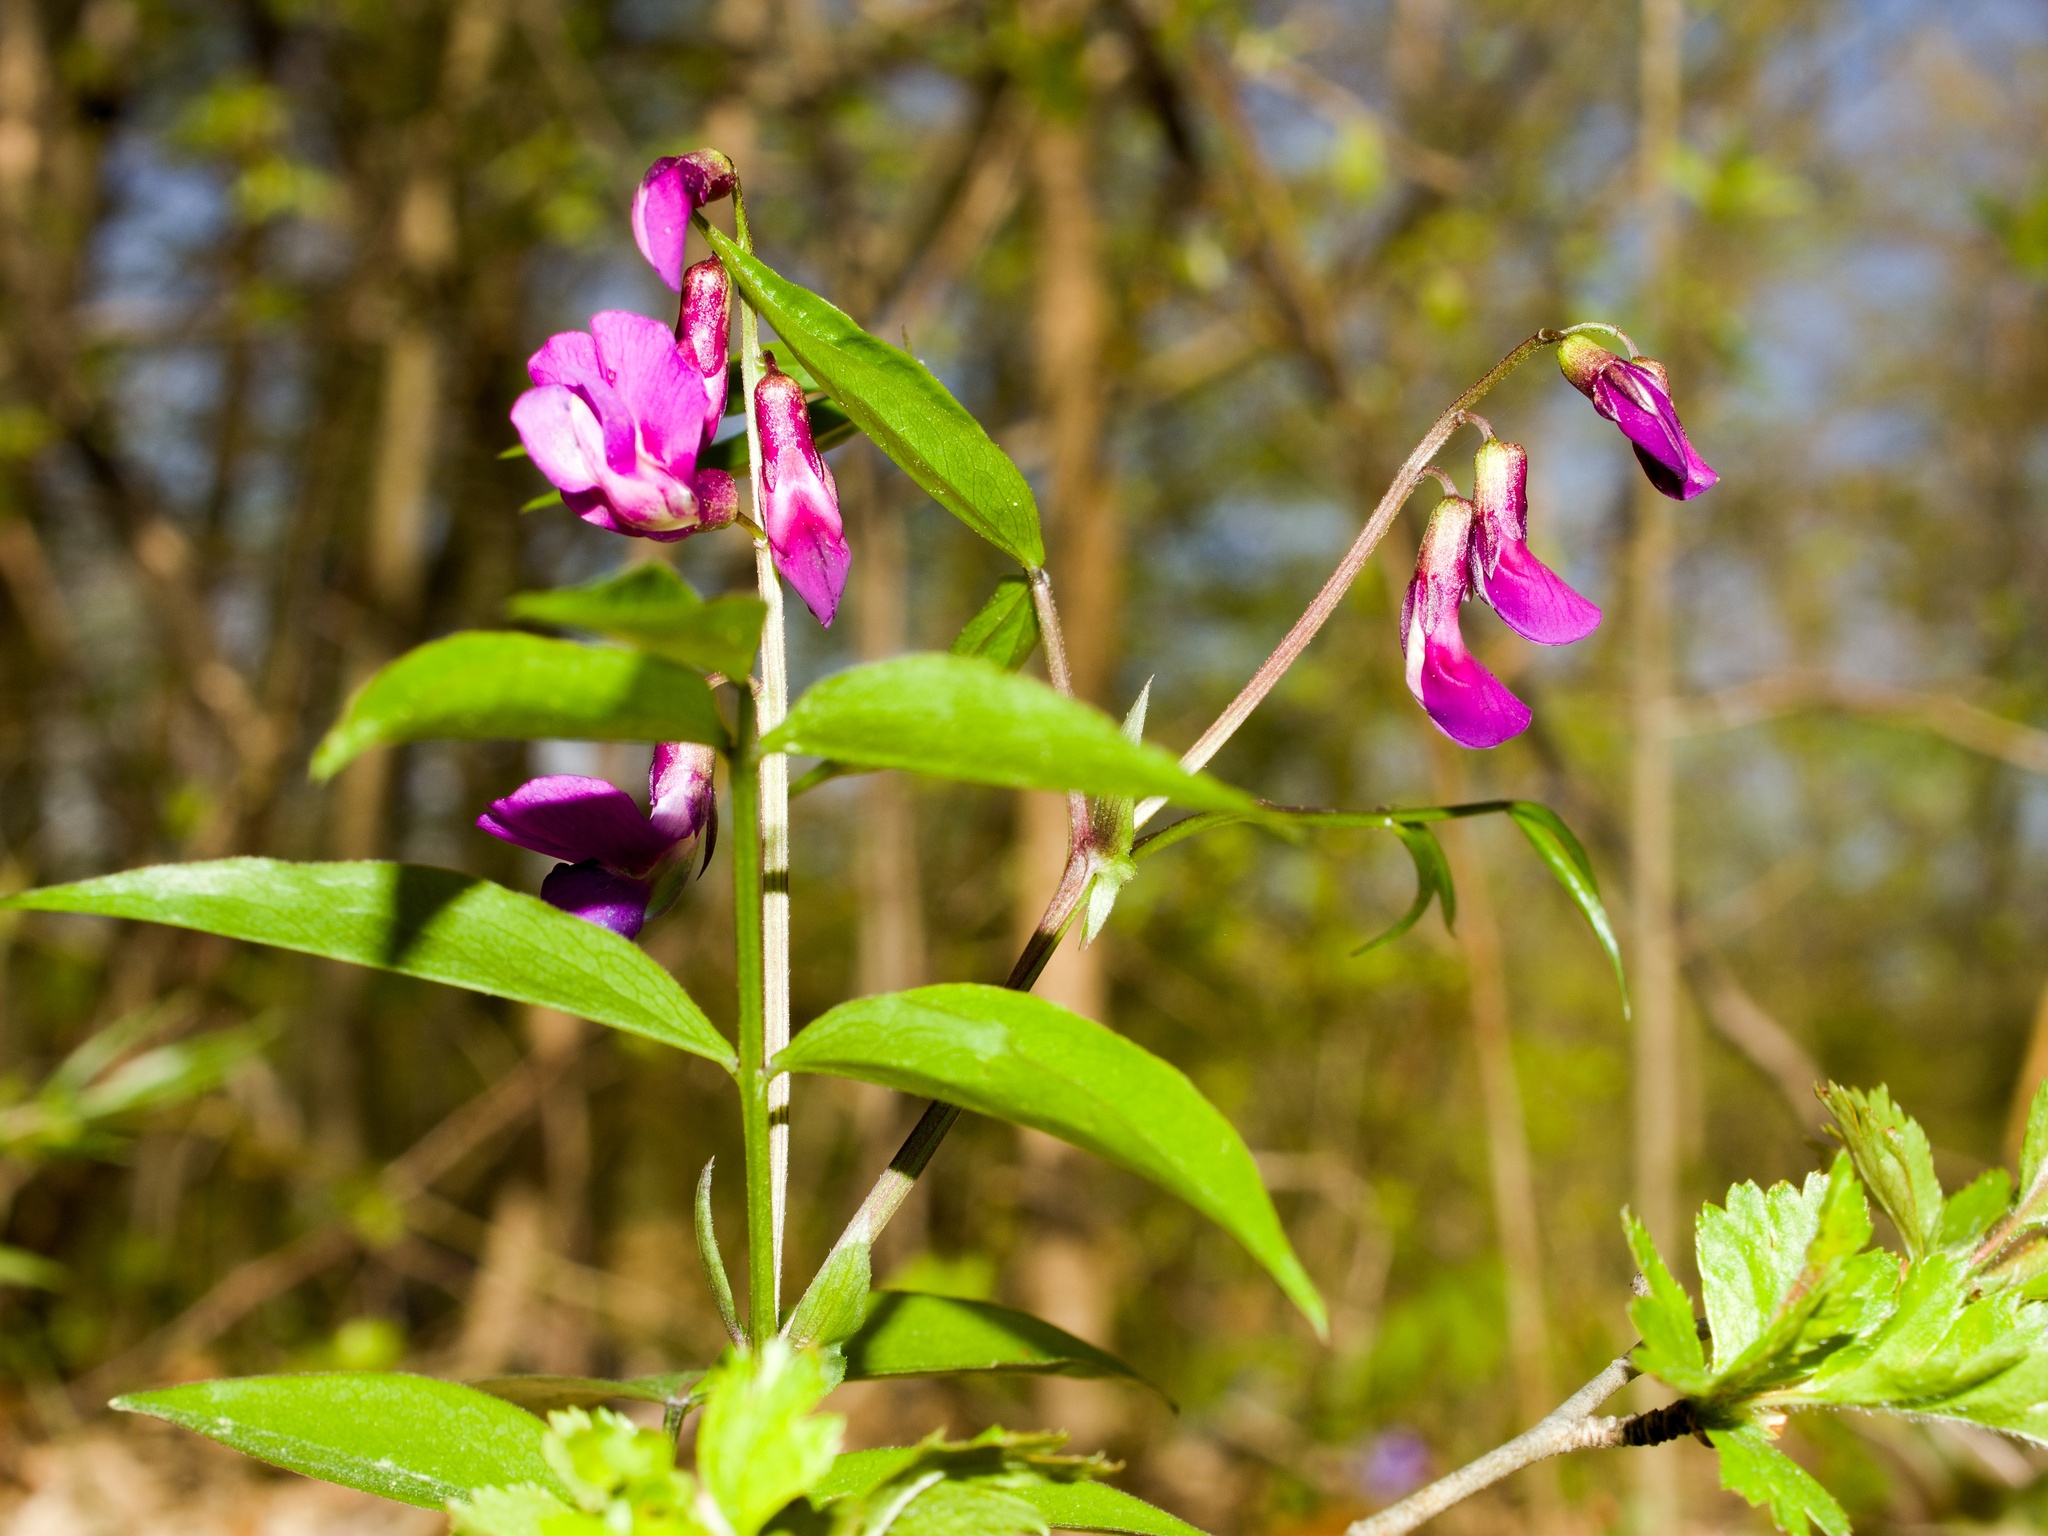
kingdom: Plantae
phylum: Tracheophyta
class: Magnoliopsida
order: Fabales
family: Fabaceae
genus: Lathyrus
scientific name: Lathyrus vernus
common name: Spring pea
